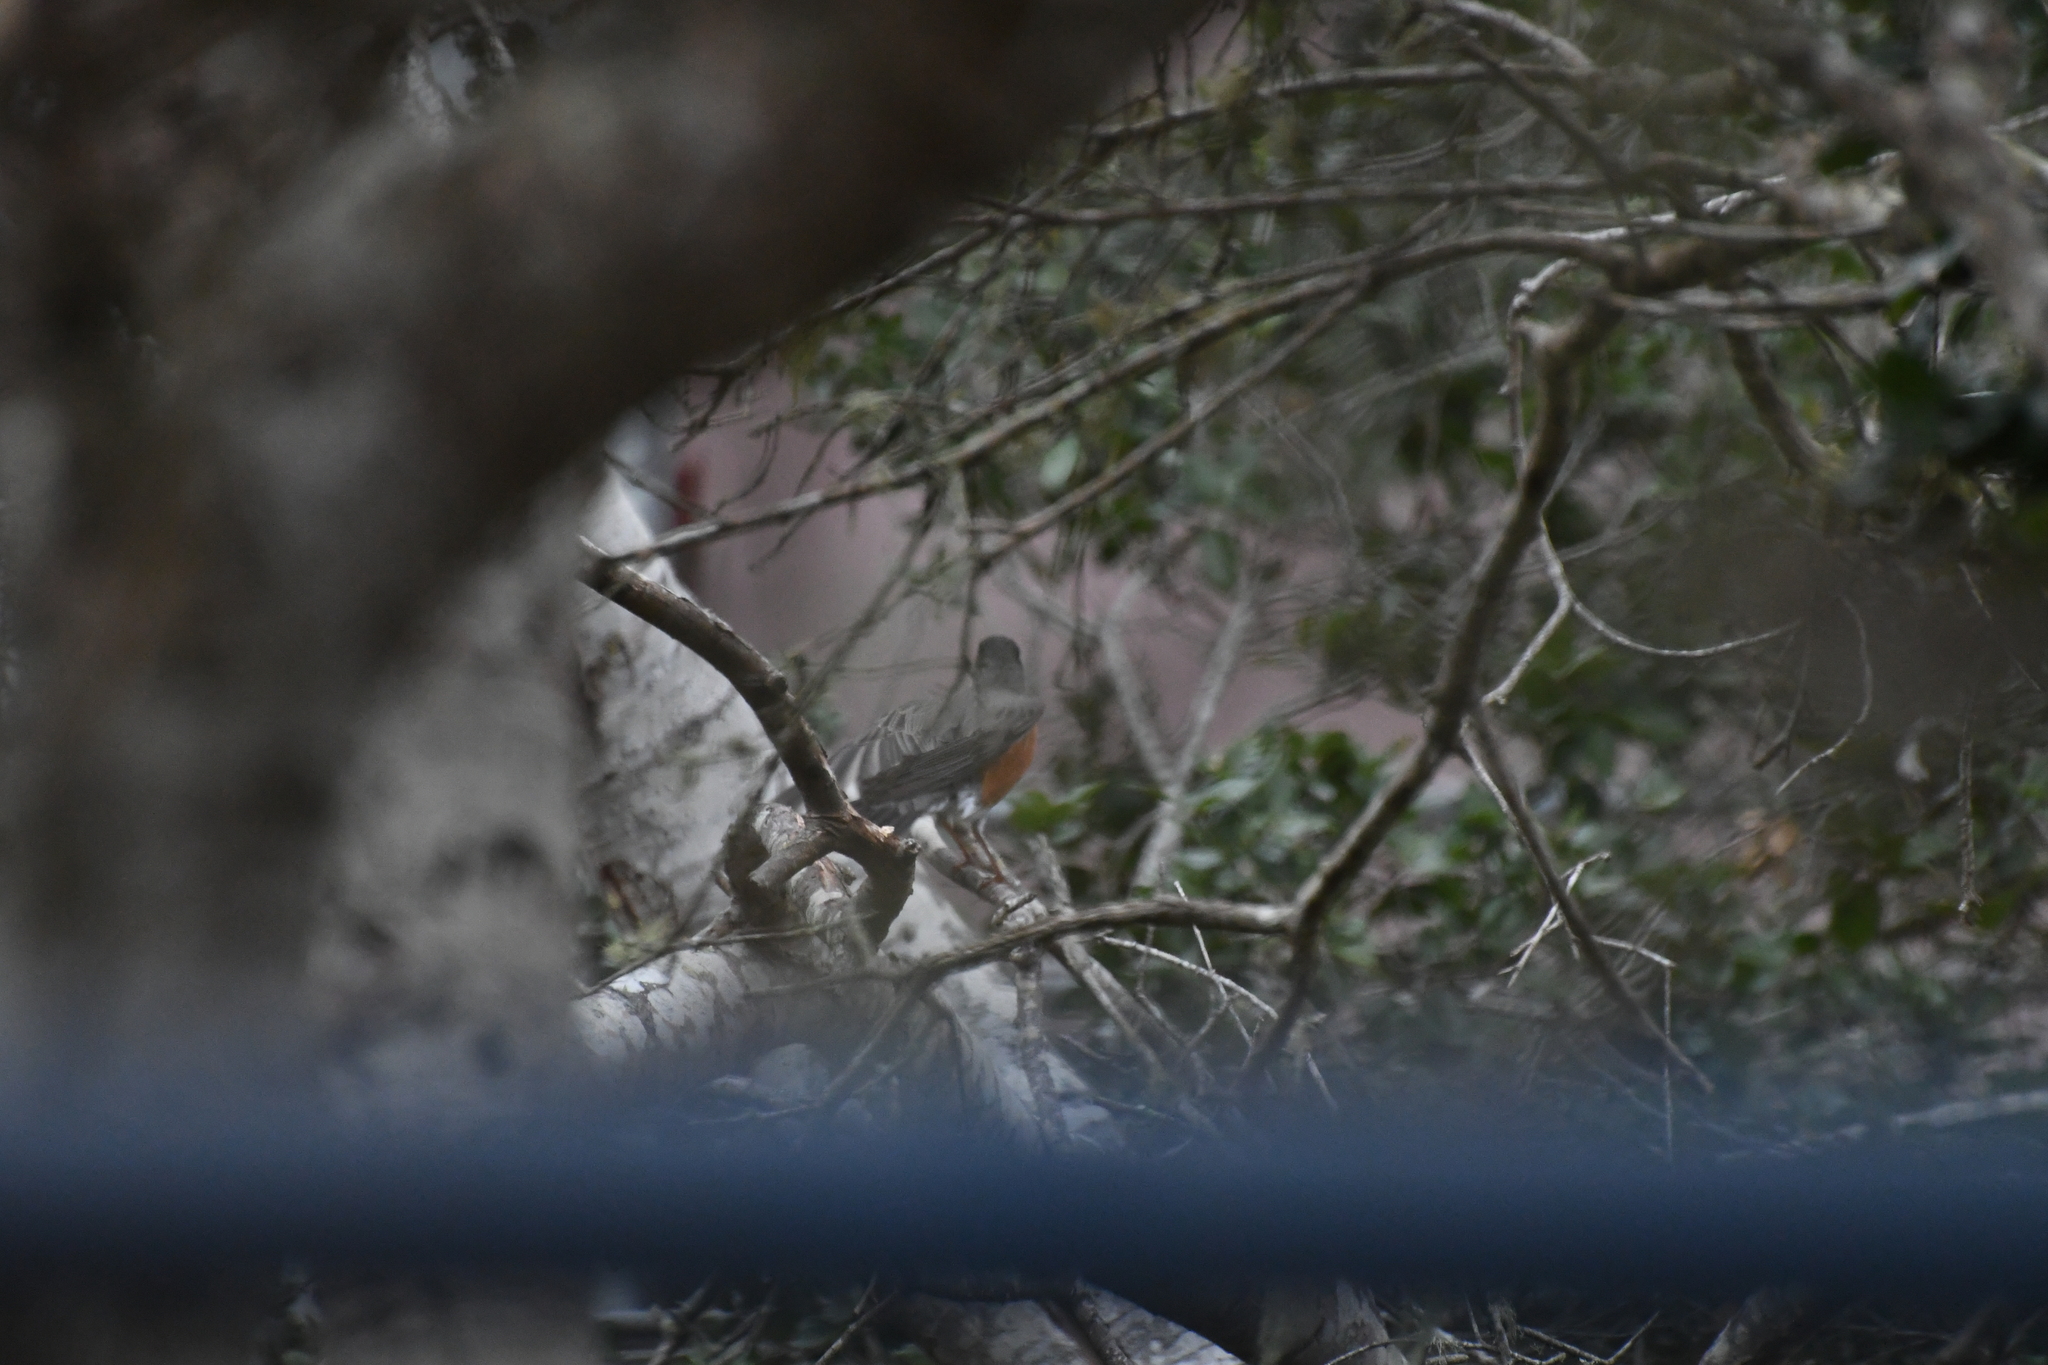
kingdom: Animalia
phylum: Chordata
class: Aves
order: Passeriformes
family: Turdidae
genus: Turdus
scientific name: Turdus migratorius
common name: American robin
